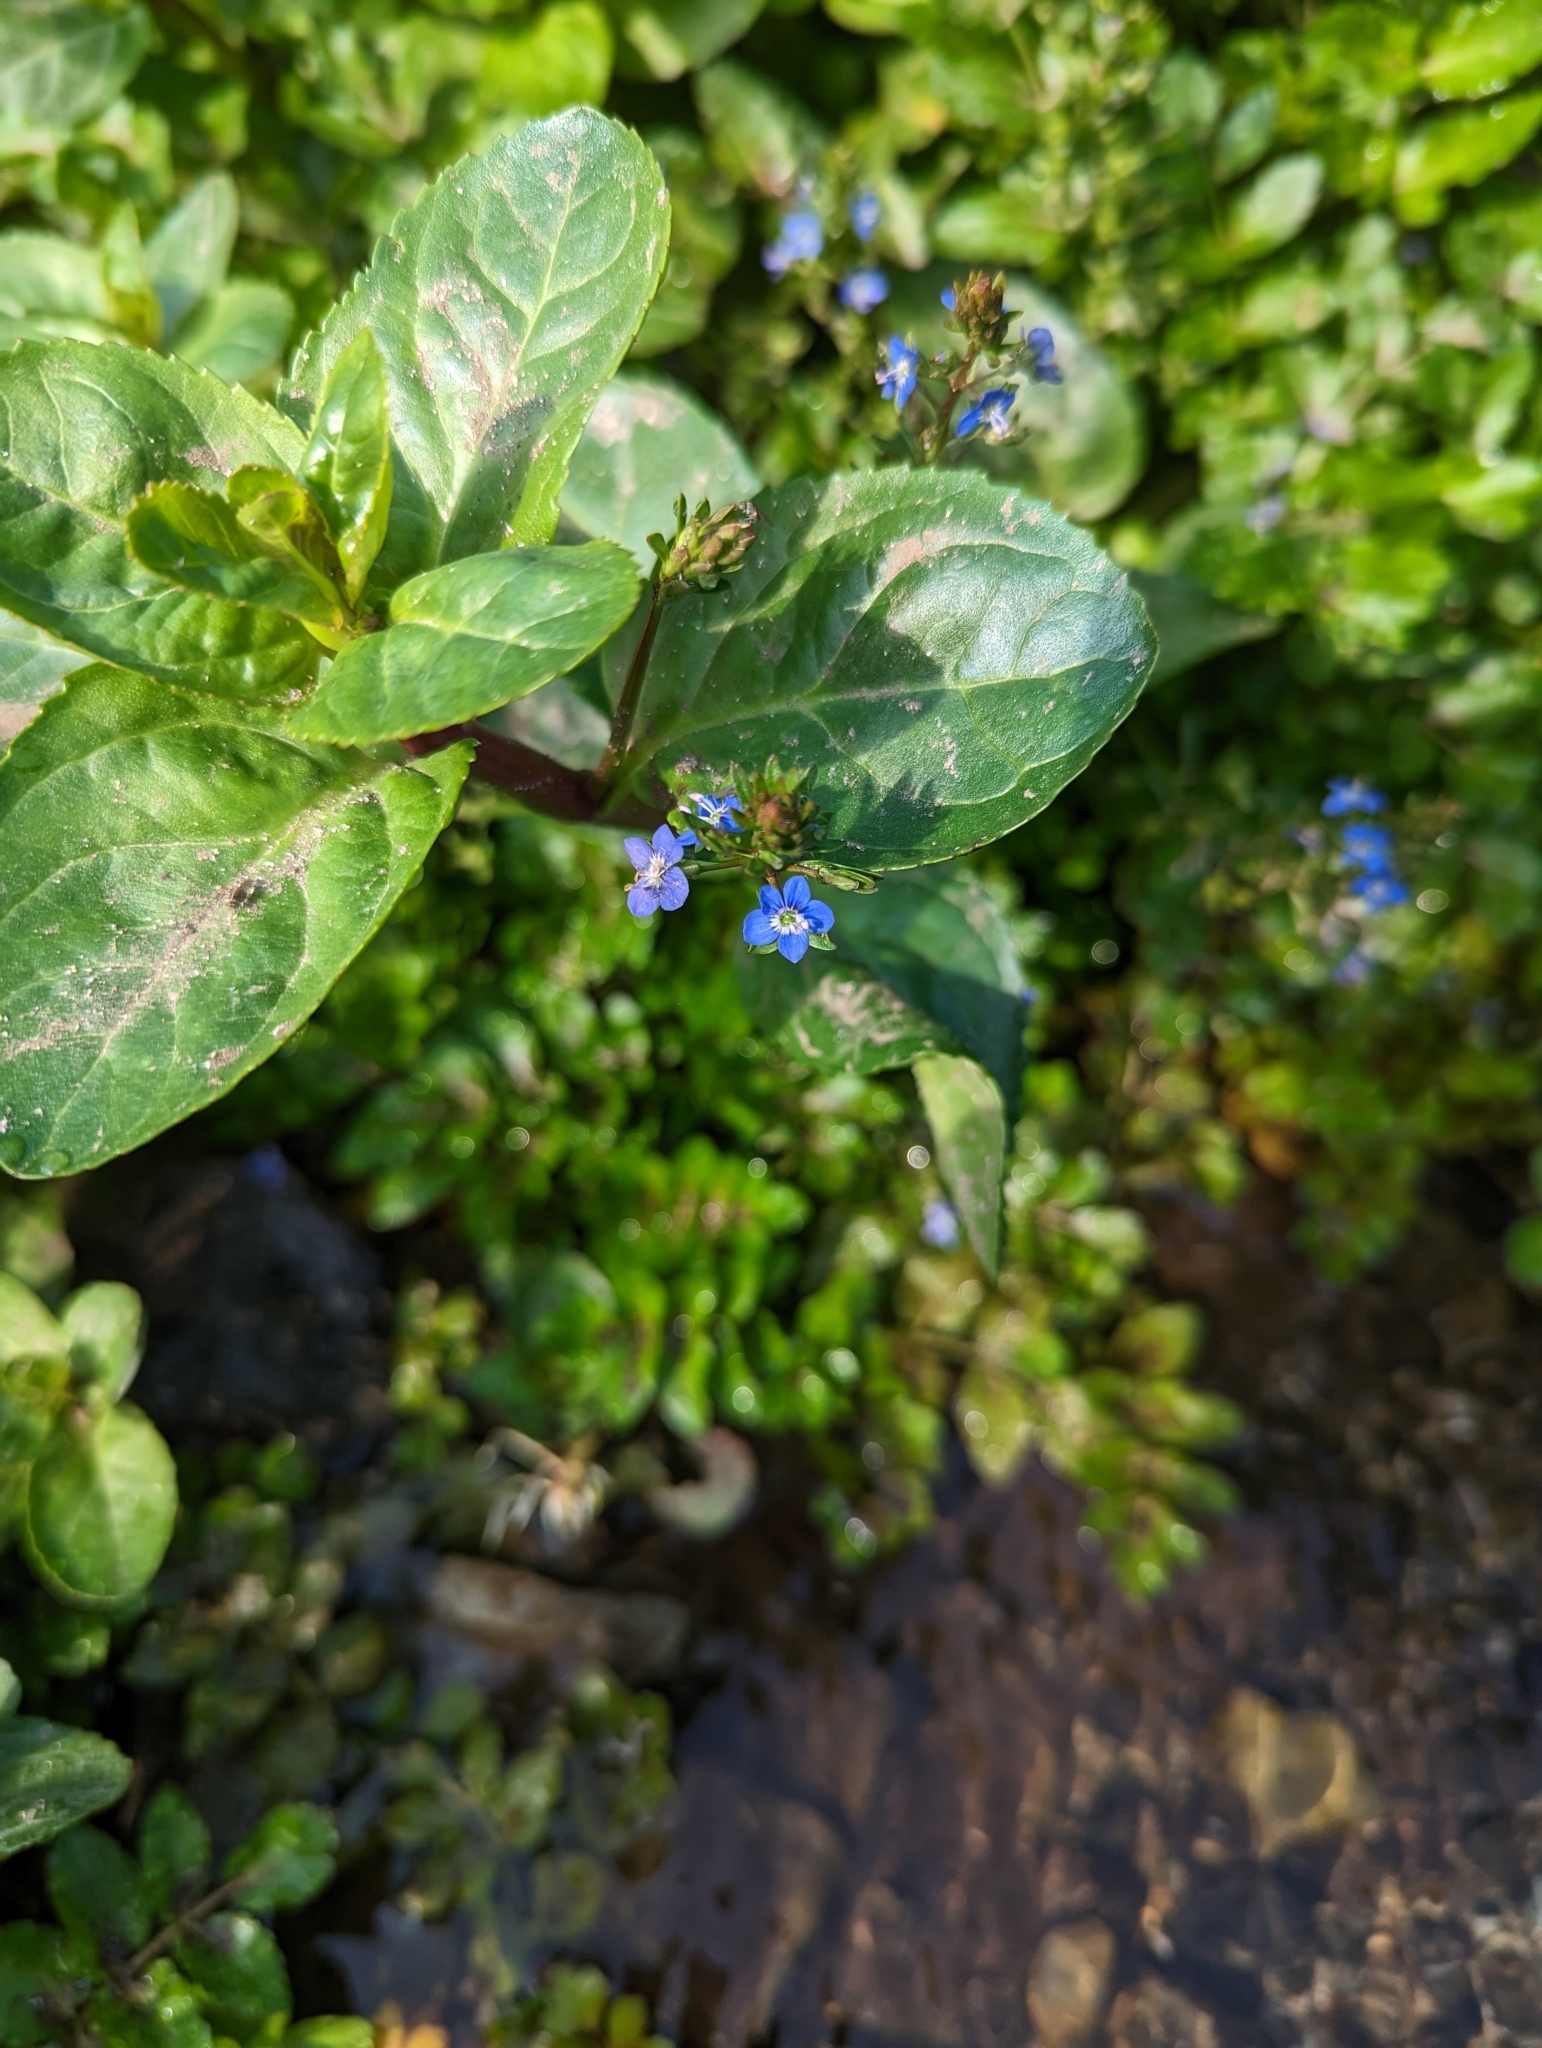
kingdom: Plantae
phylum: Tracheophyta
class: Magnoliopsida
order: Lamiales
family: Plantaginaceae
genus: Veronica
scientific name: Veronica beccabunga
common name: Brooklime
